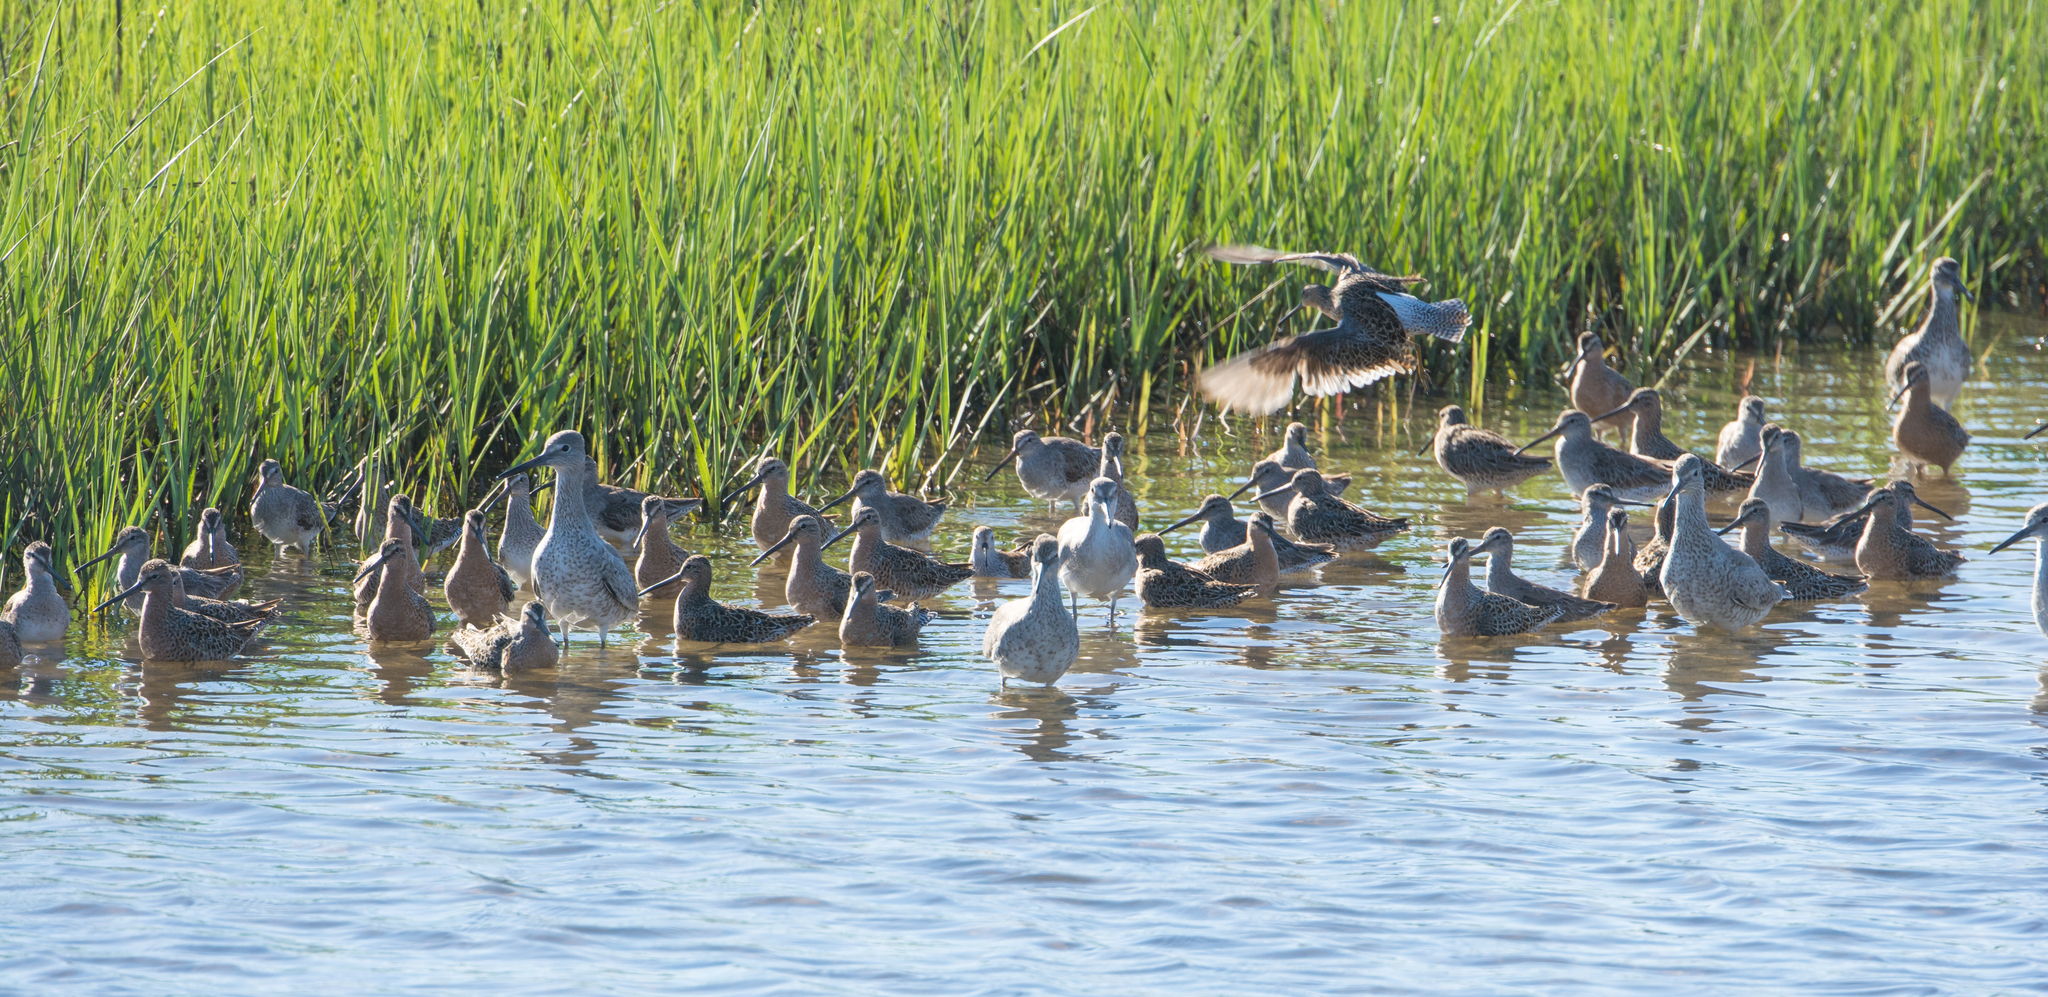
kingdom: Animalia
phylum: Chordata
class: Aves
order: Charadriiformes
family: Scolopacidae
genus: Tringa
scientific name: Tringa semipalmata
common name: Willet
